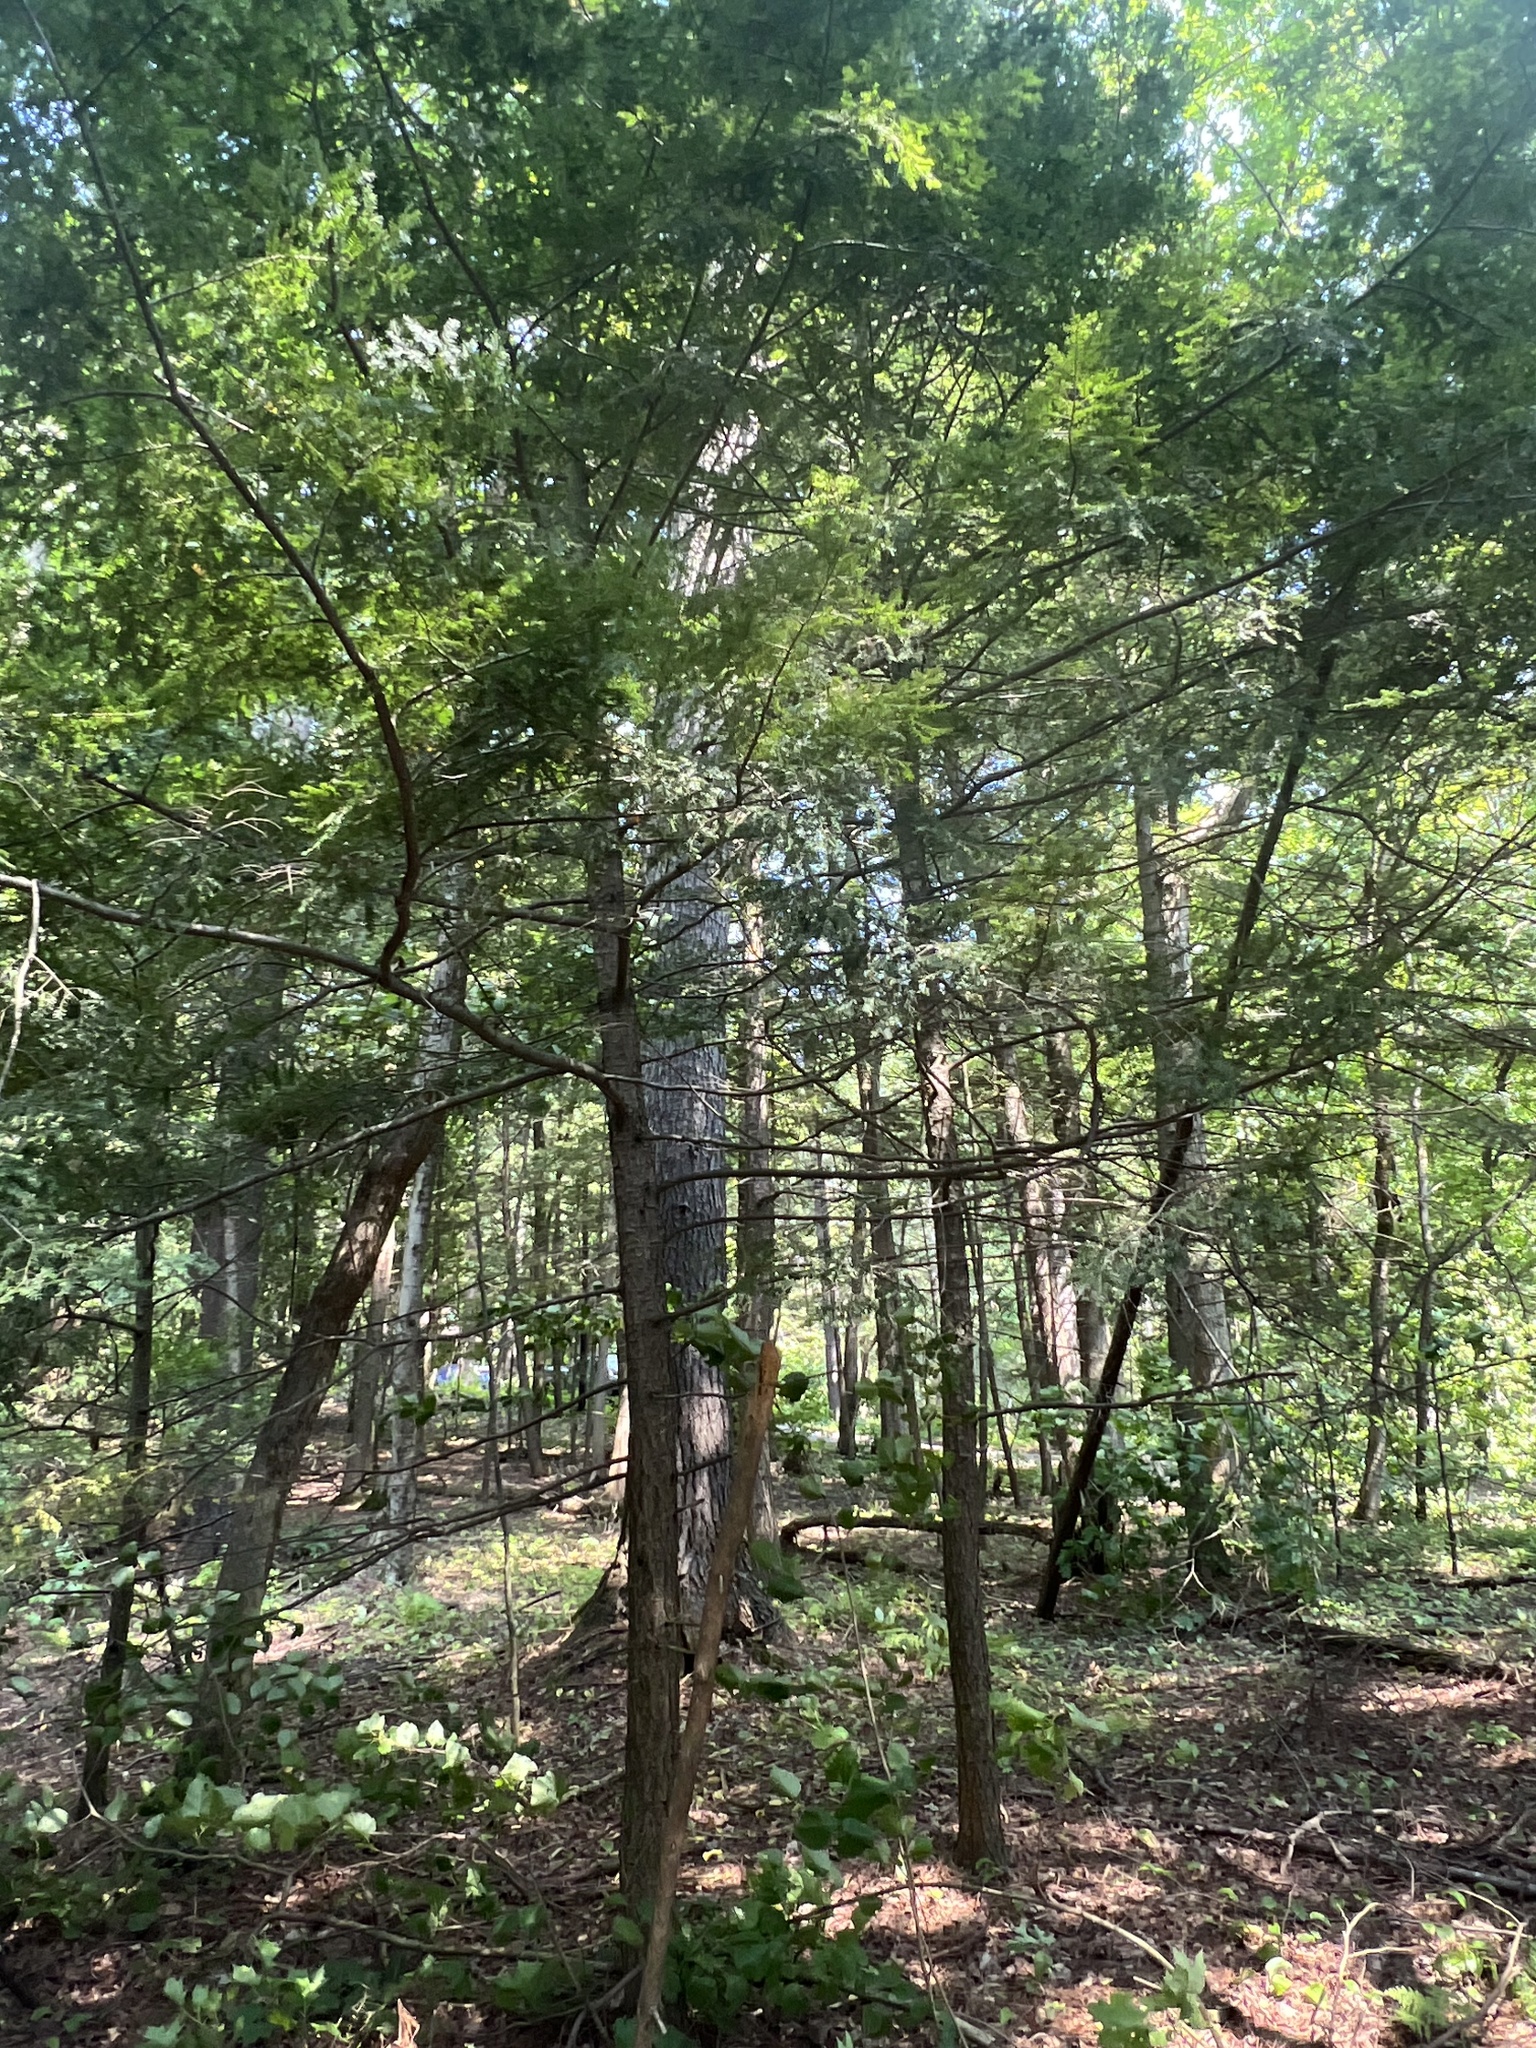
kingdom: Plantae
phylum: Tracheophyta
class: Pinopsida
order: Pinales
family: Pinaceae
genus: Tsuga
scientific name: Tsuga canadensis
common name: Eastern hemlock
